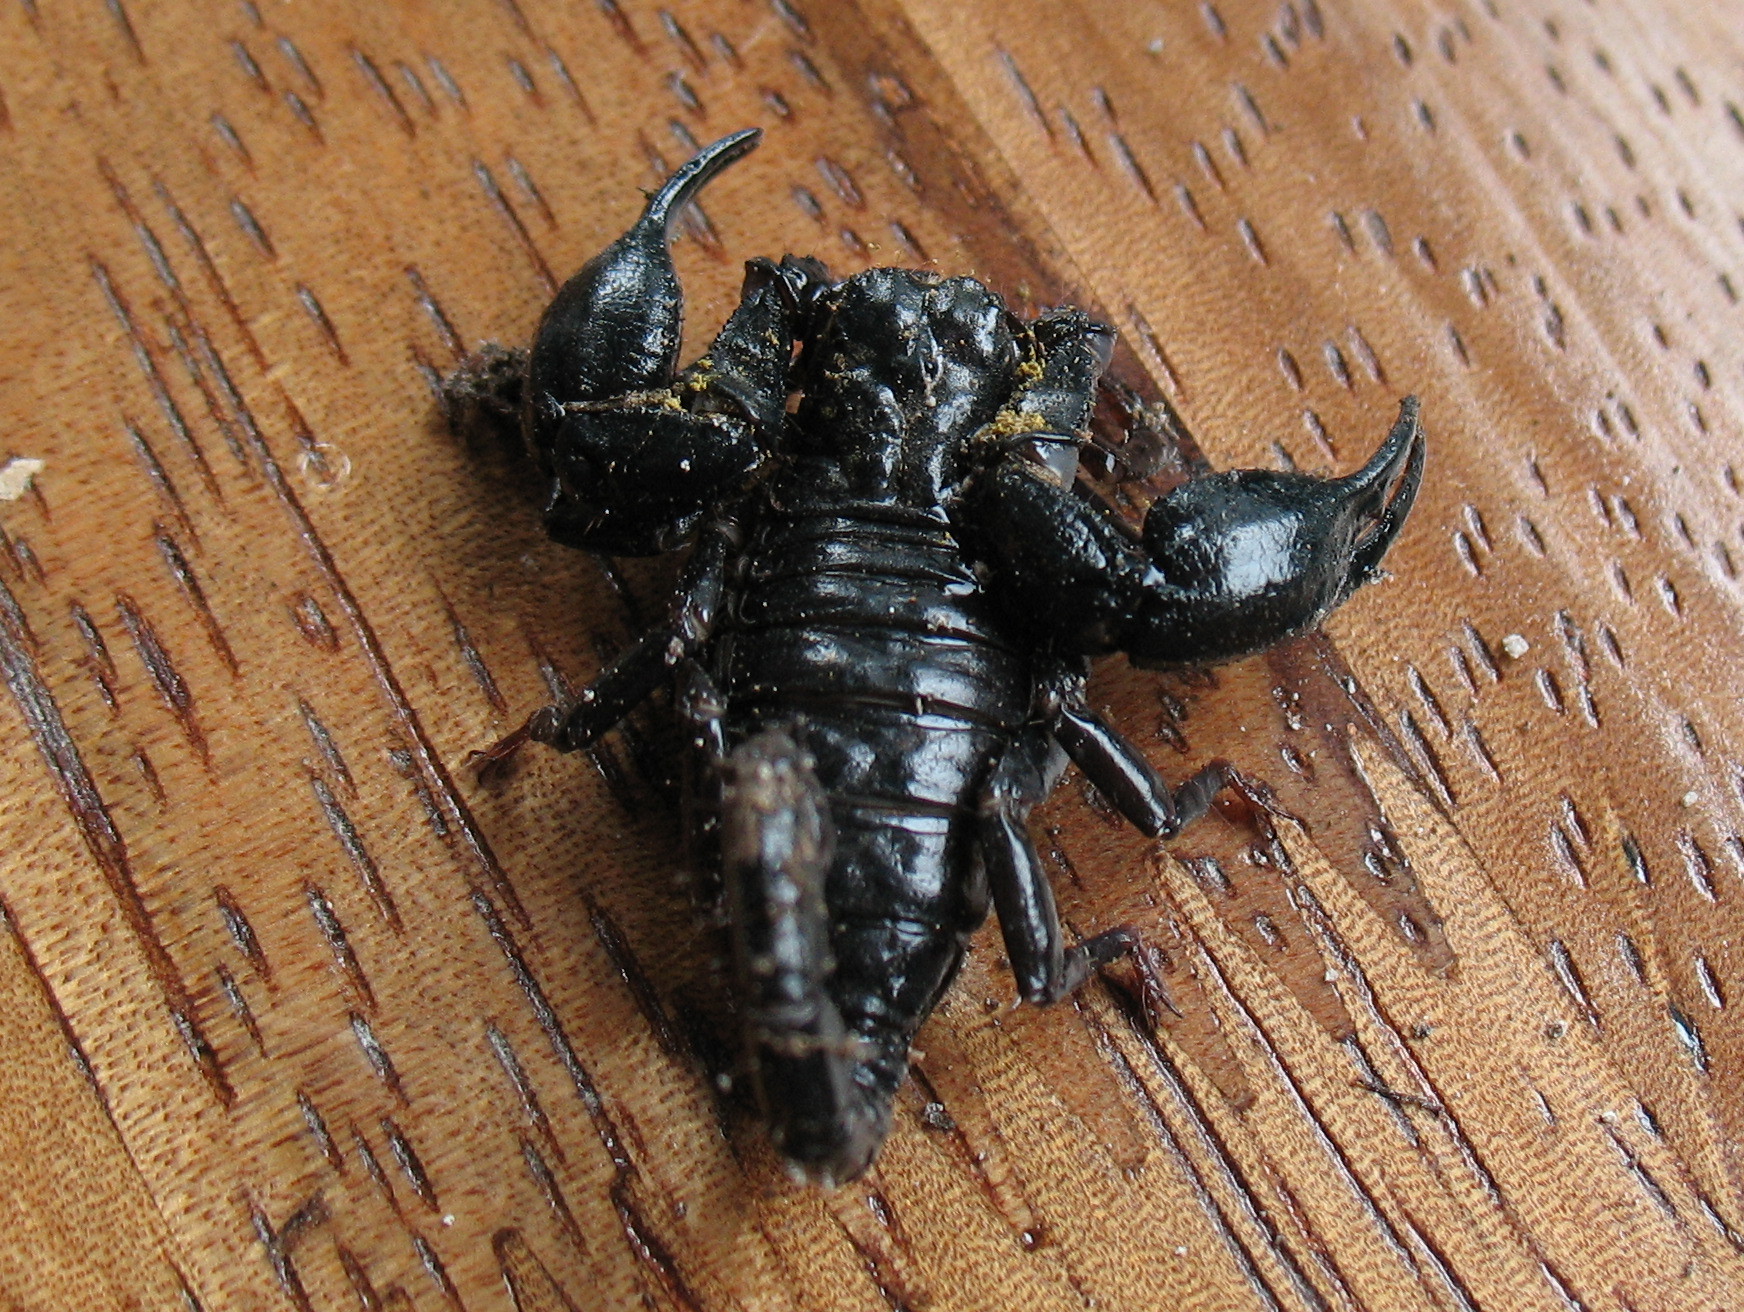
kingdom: Animalia
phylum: Arthropoda
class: Arachnida
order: Scorpiones
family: Chactidae
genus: Teuthraustes
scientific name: Teuthraustes atramentarius
